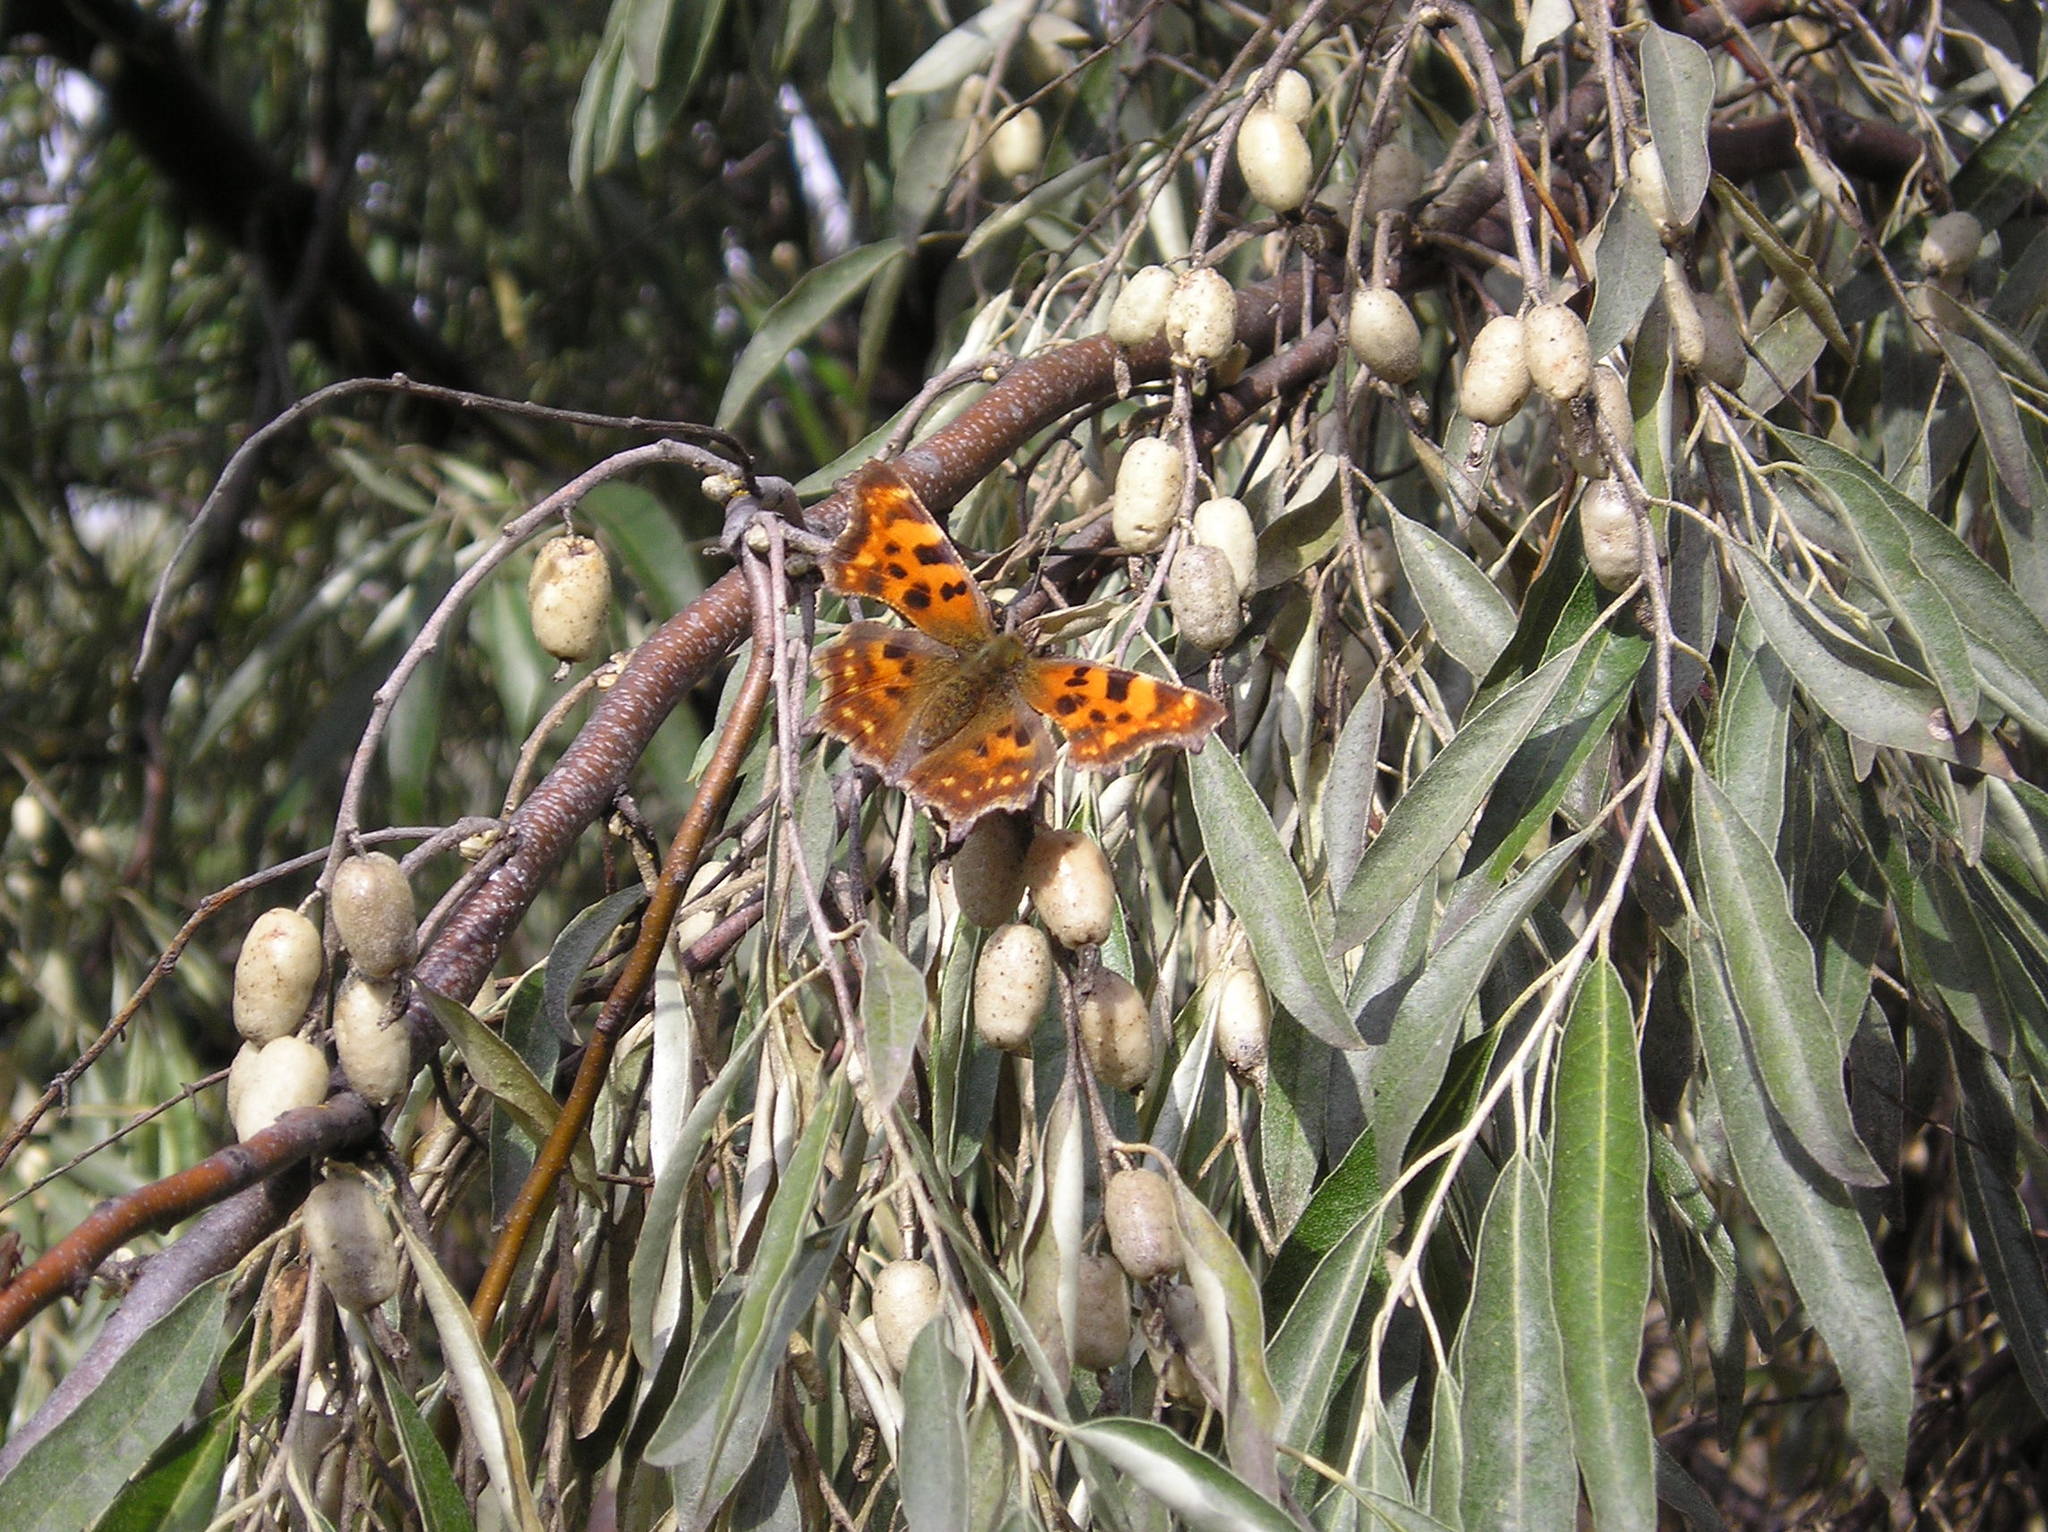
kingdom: Animalia
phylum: Arthropoda
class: Insecta
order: Lepidoptera
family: Nymphalidae
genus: Polygonia
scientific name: Polygonia c-album
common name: Comma
